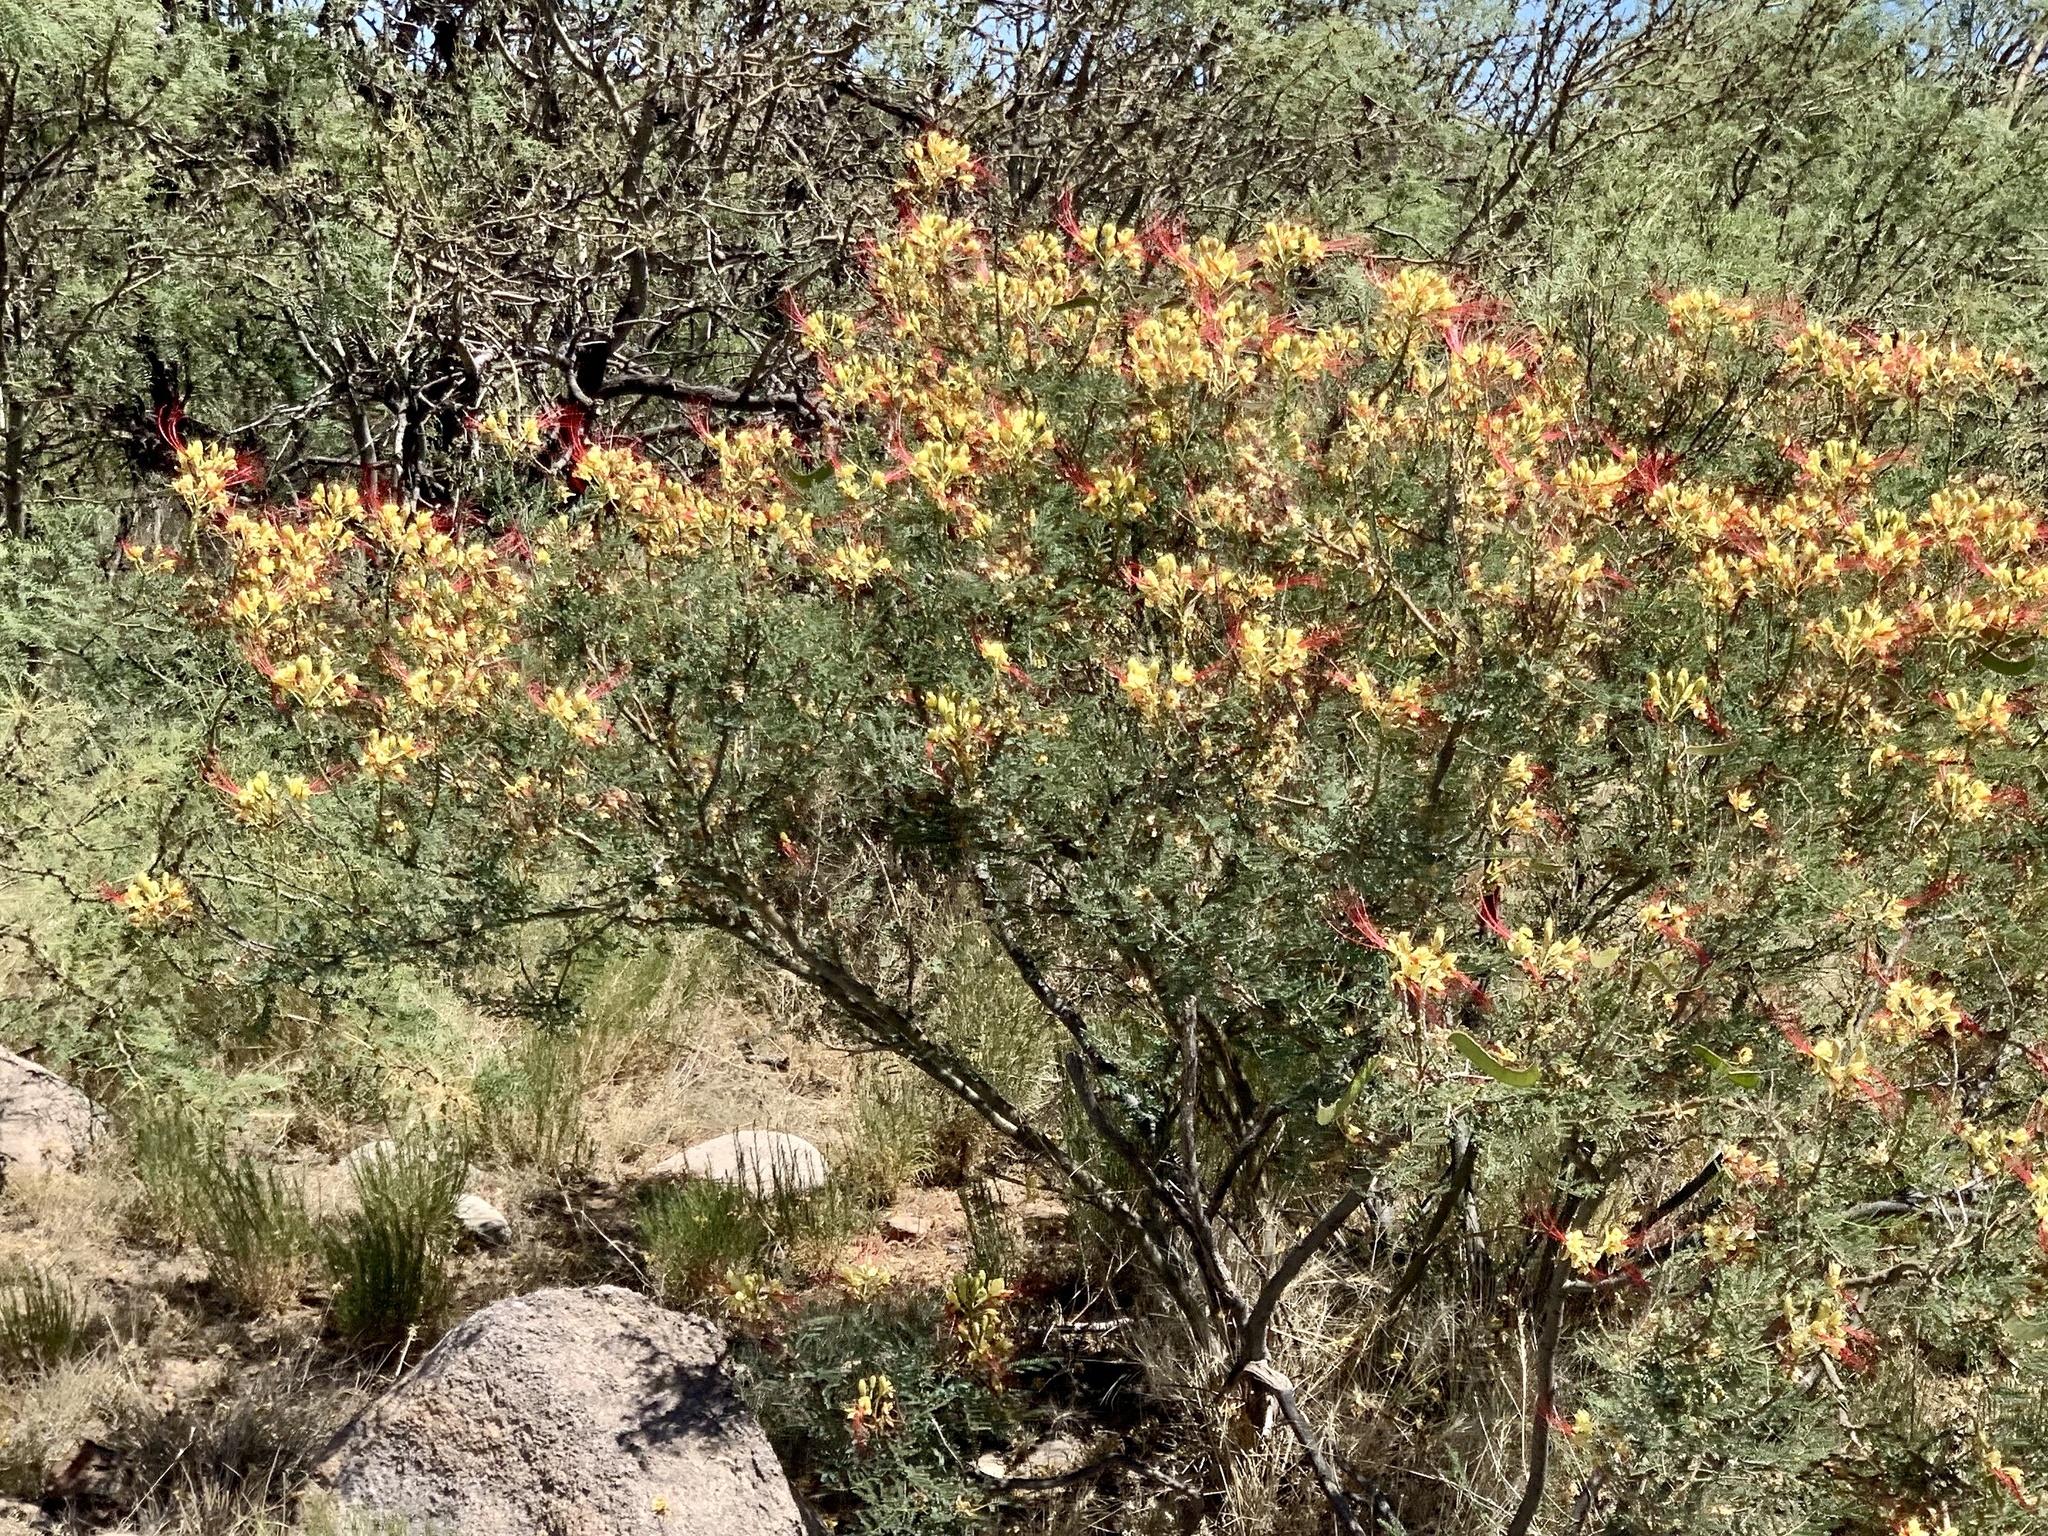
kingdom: Plantae
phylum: Tracheophyta
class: Magnoliopsida
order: Fabales
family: Fabaceae
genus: Erythrostemon
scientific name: Erythrostemon gilliesii
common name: Bird-of-paradise shrub
